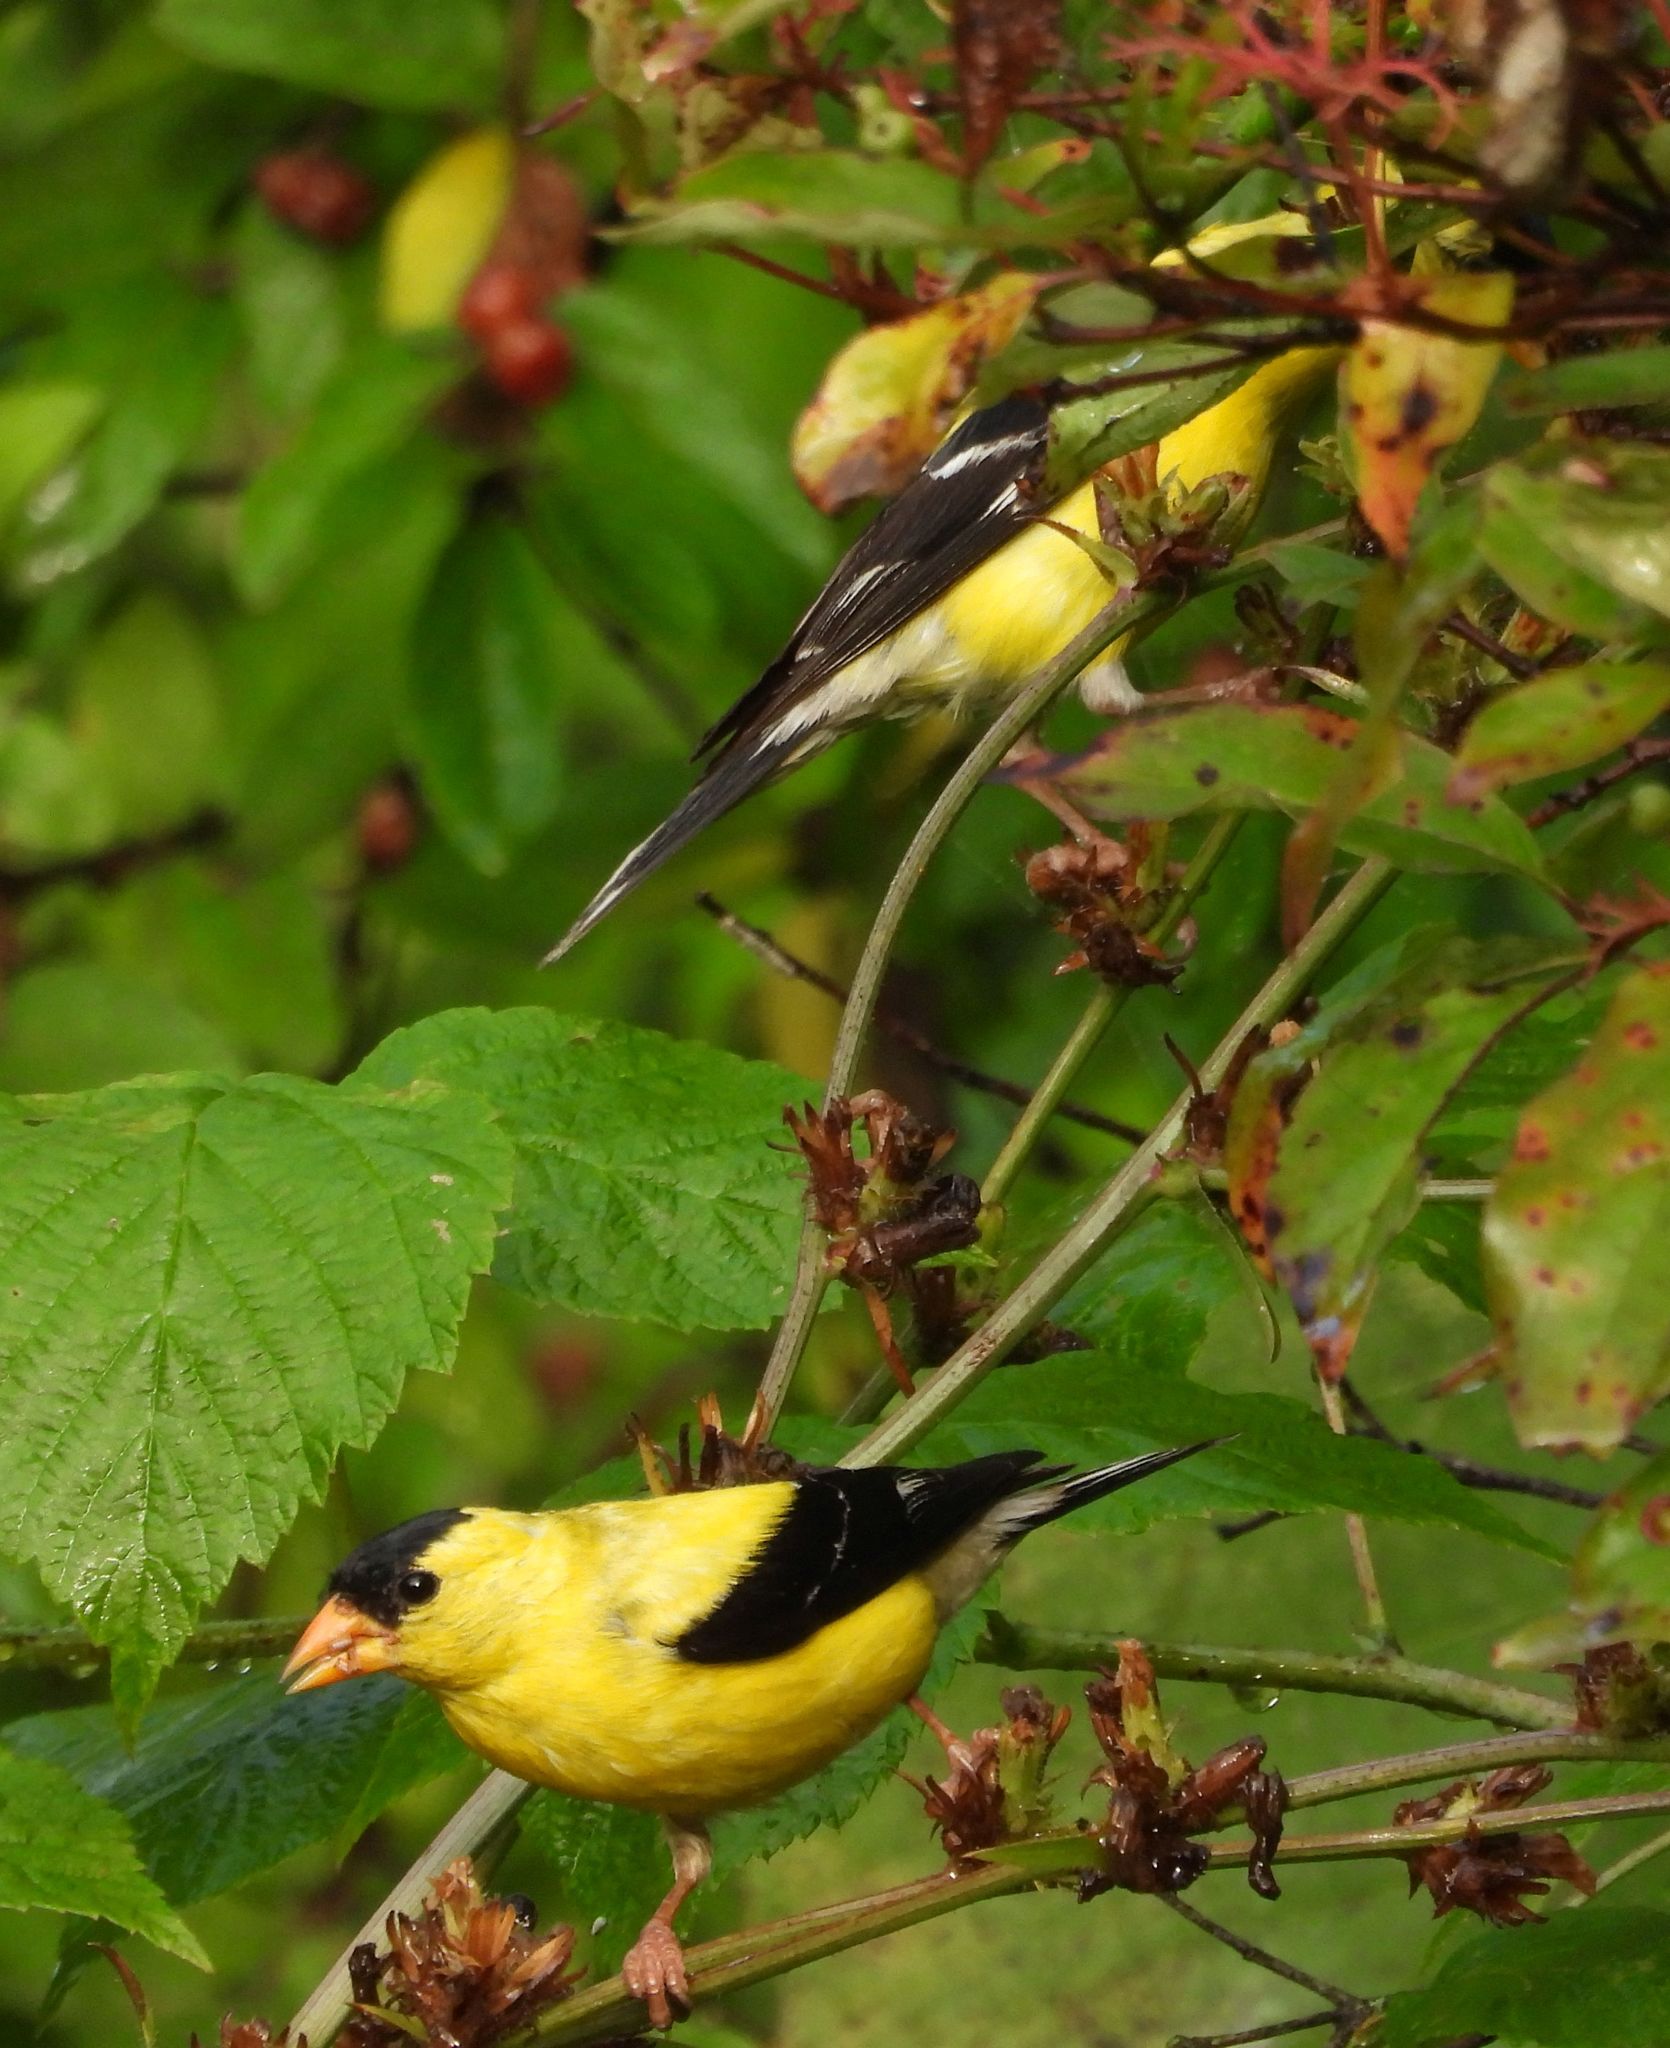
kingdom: Animalia
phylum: Chordata
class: Aves
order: Passeriformes
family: Fringillidae
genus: Spinus
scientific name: Spinus tristis
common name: American goldfinch
